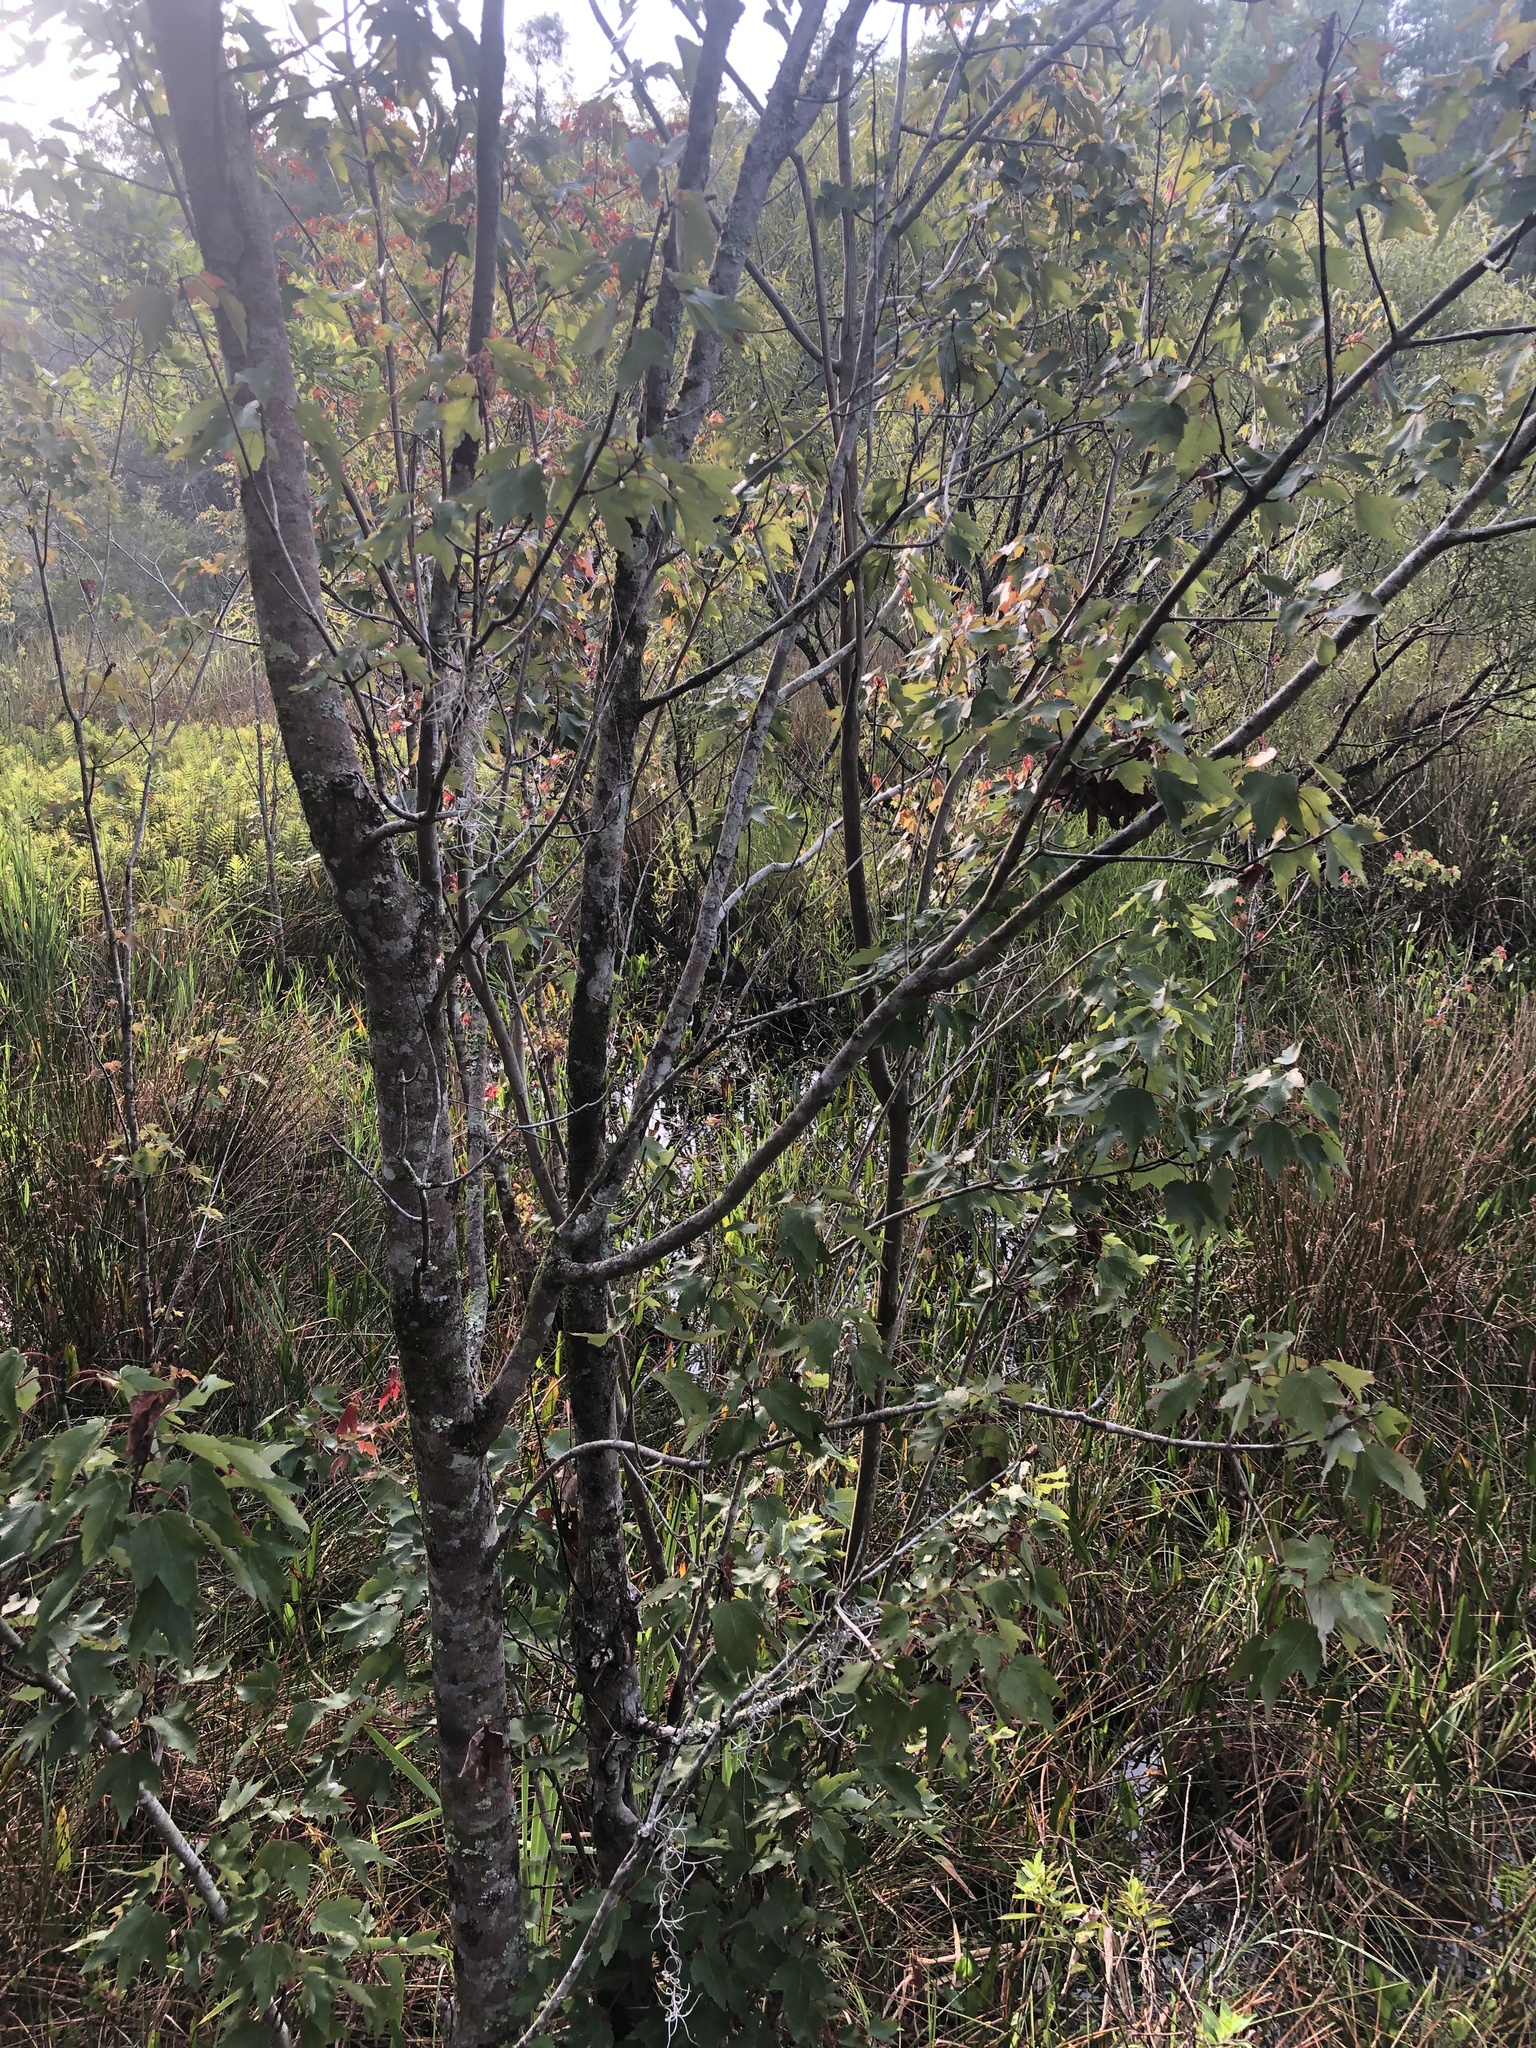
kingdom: Plantae
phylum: Tracheophyta
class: Magnoliopsida
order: Sapindales
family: Sapindaceae
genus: Acer
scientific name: Acer rubrum
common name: Red maple
